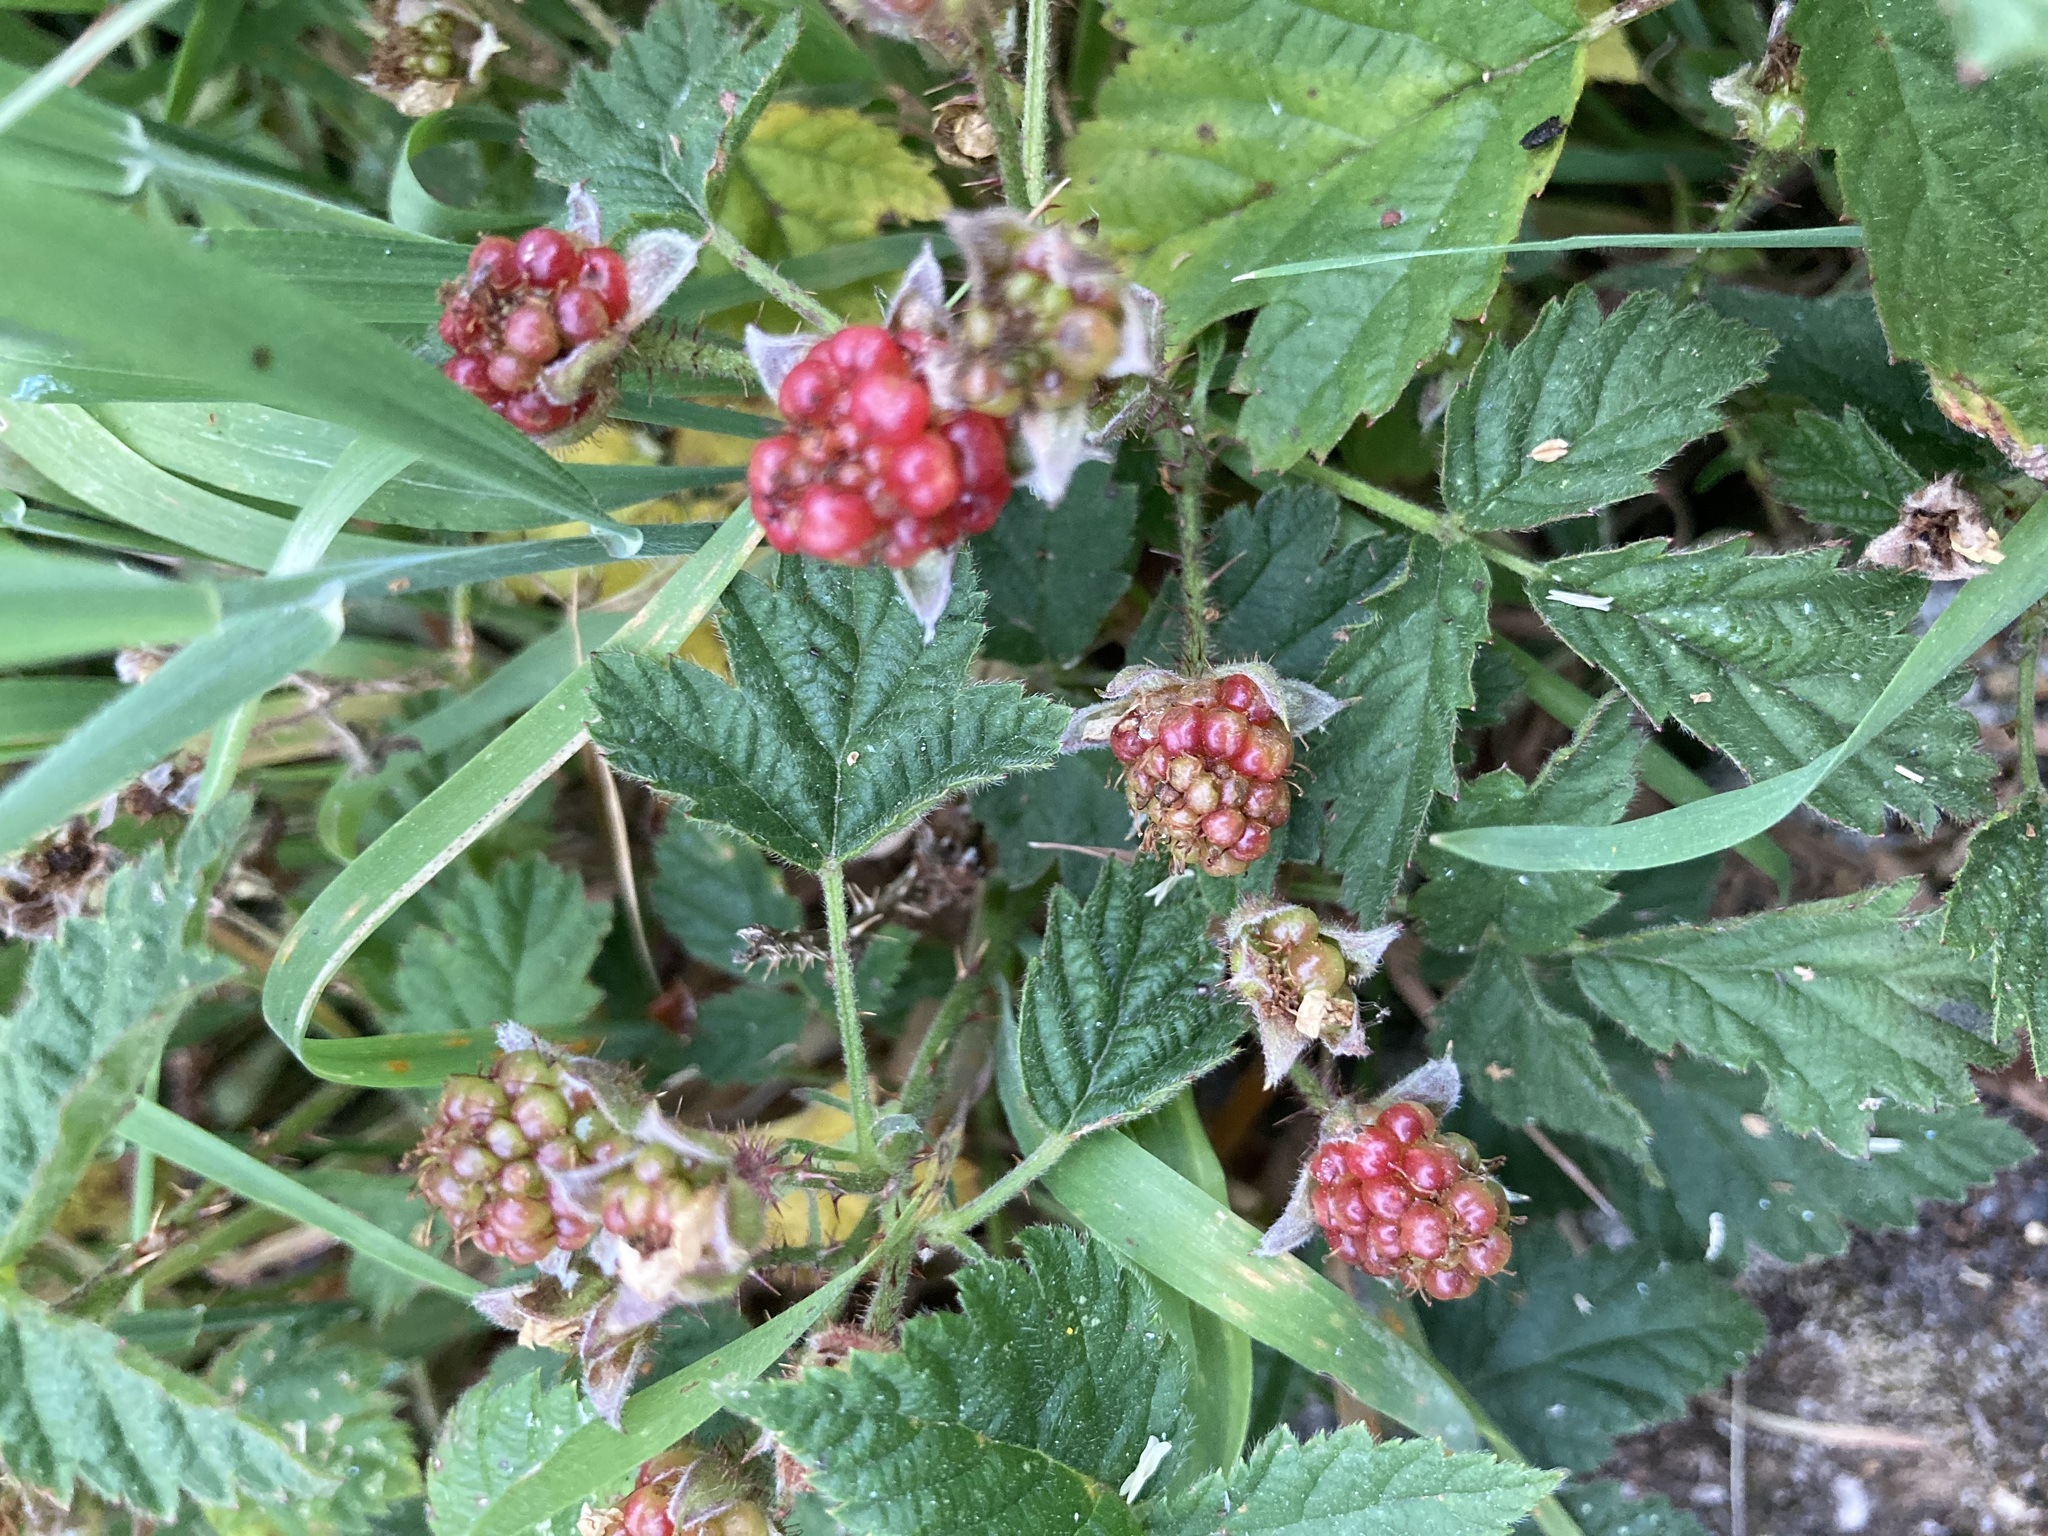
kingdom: Plantae
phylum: Tracheophyta
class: Magnoliopsida
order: Rosales
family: Rosaceae
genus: Rubus
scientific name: Rubus ursinus
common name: Pacific blackberry
